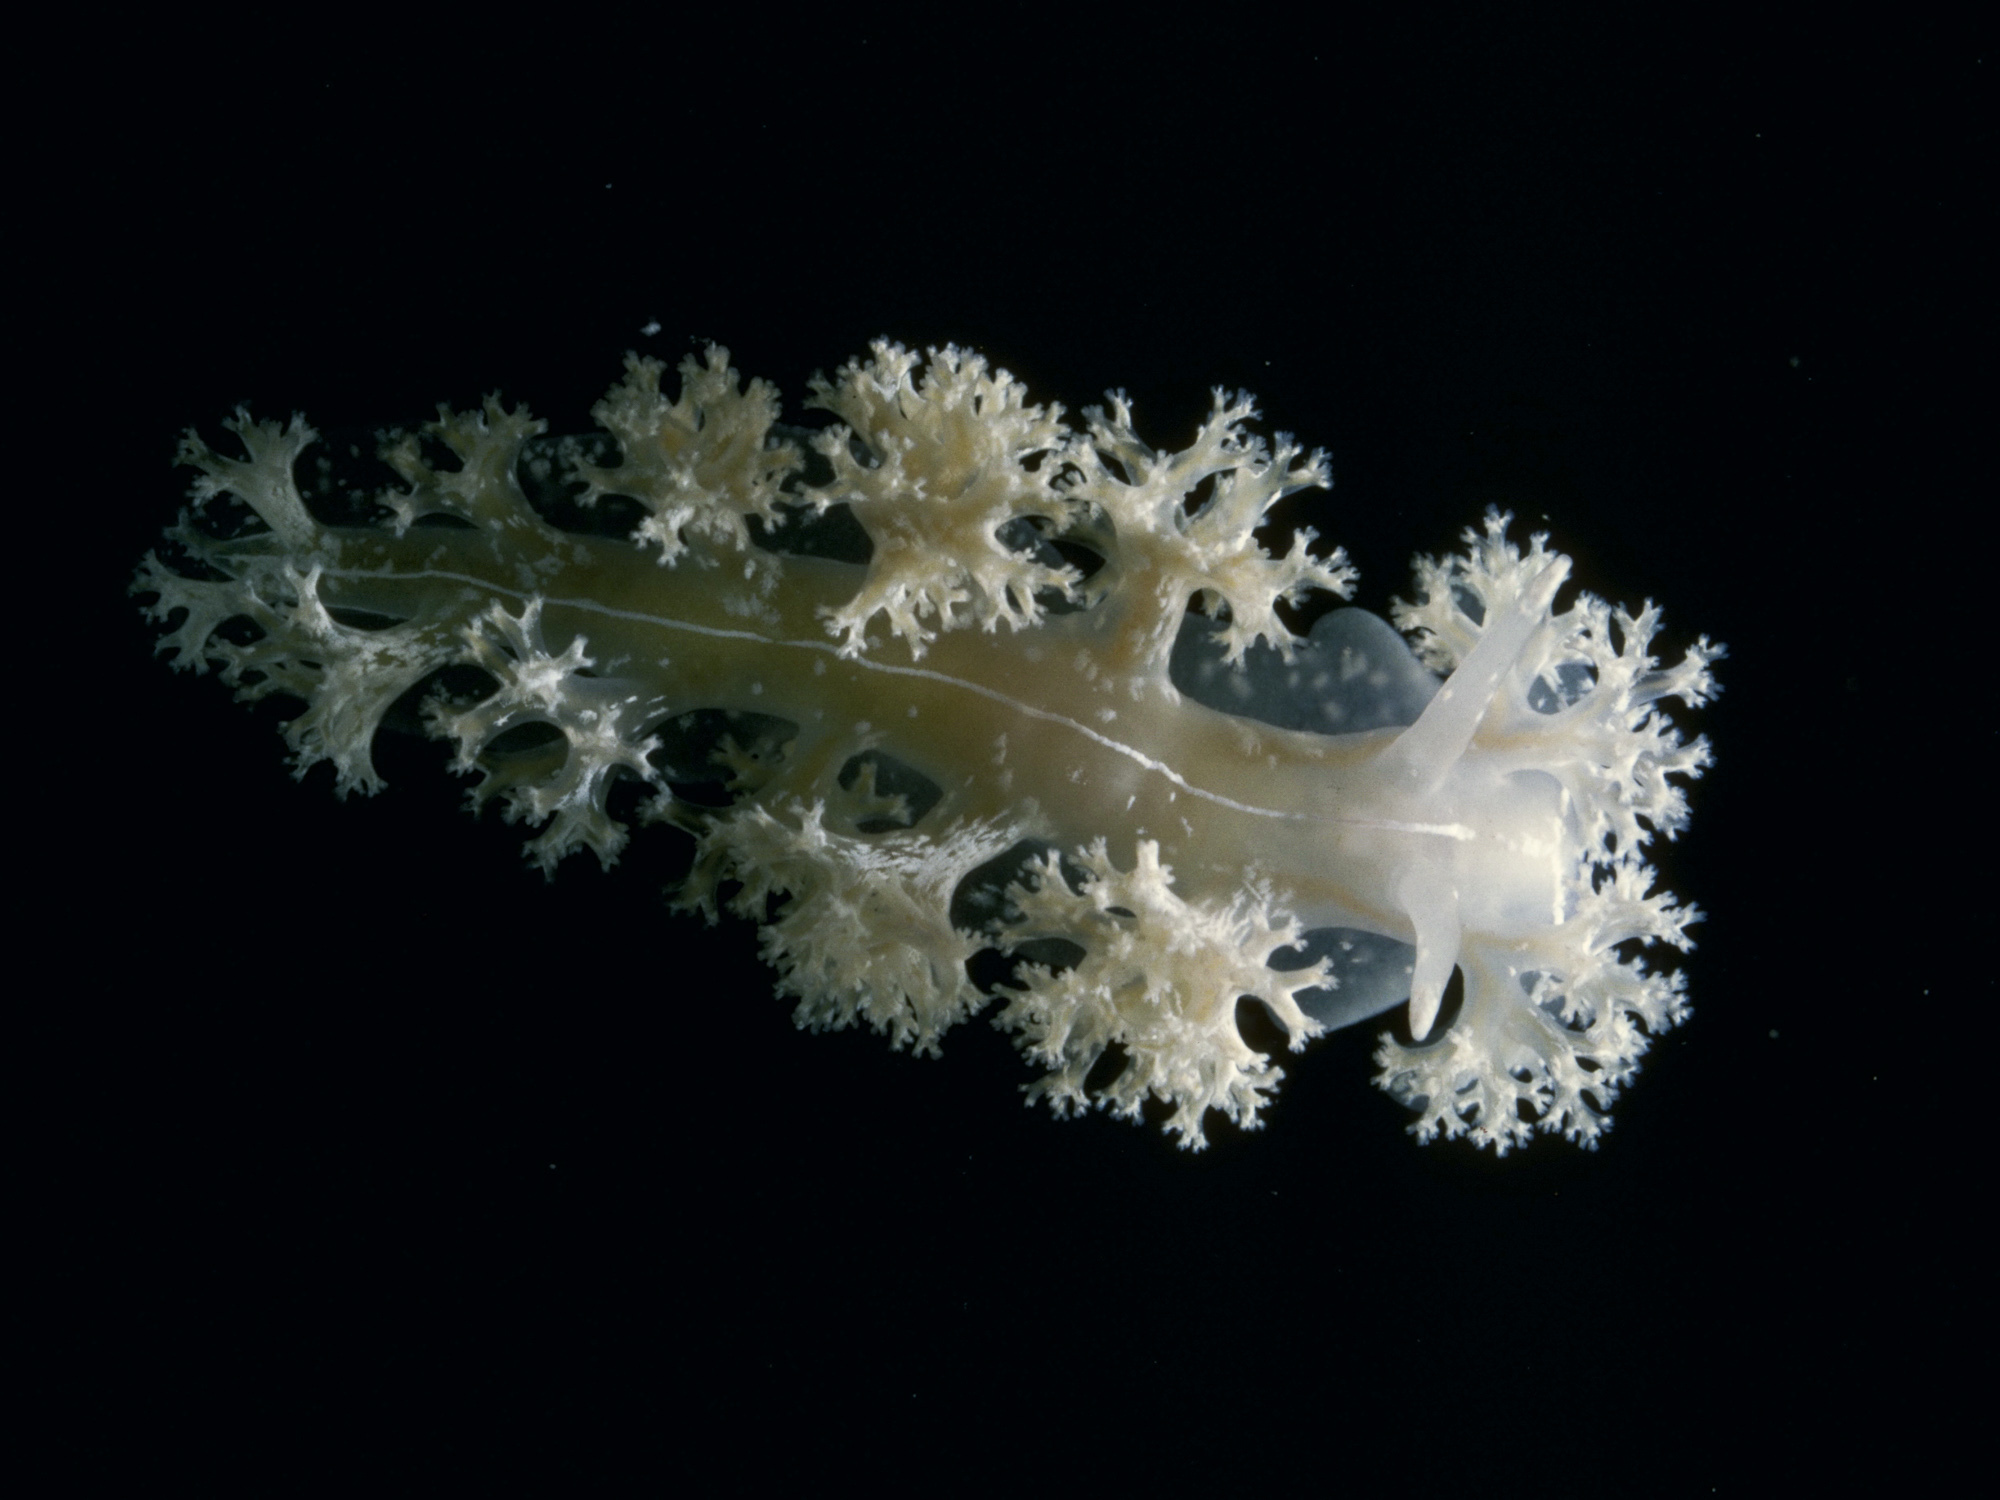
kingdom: Animalia
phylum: Mollusca
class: Gastropoda
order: Nudibranchia
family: Heroidae
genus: Hero
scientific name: Hero formosa
